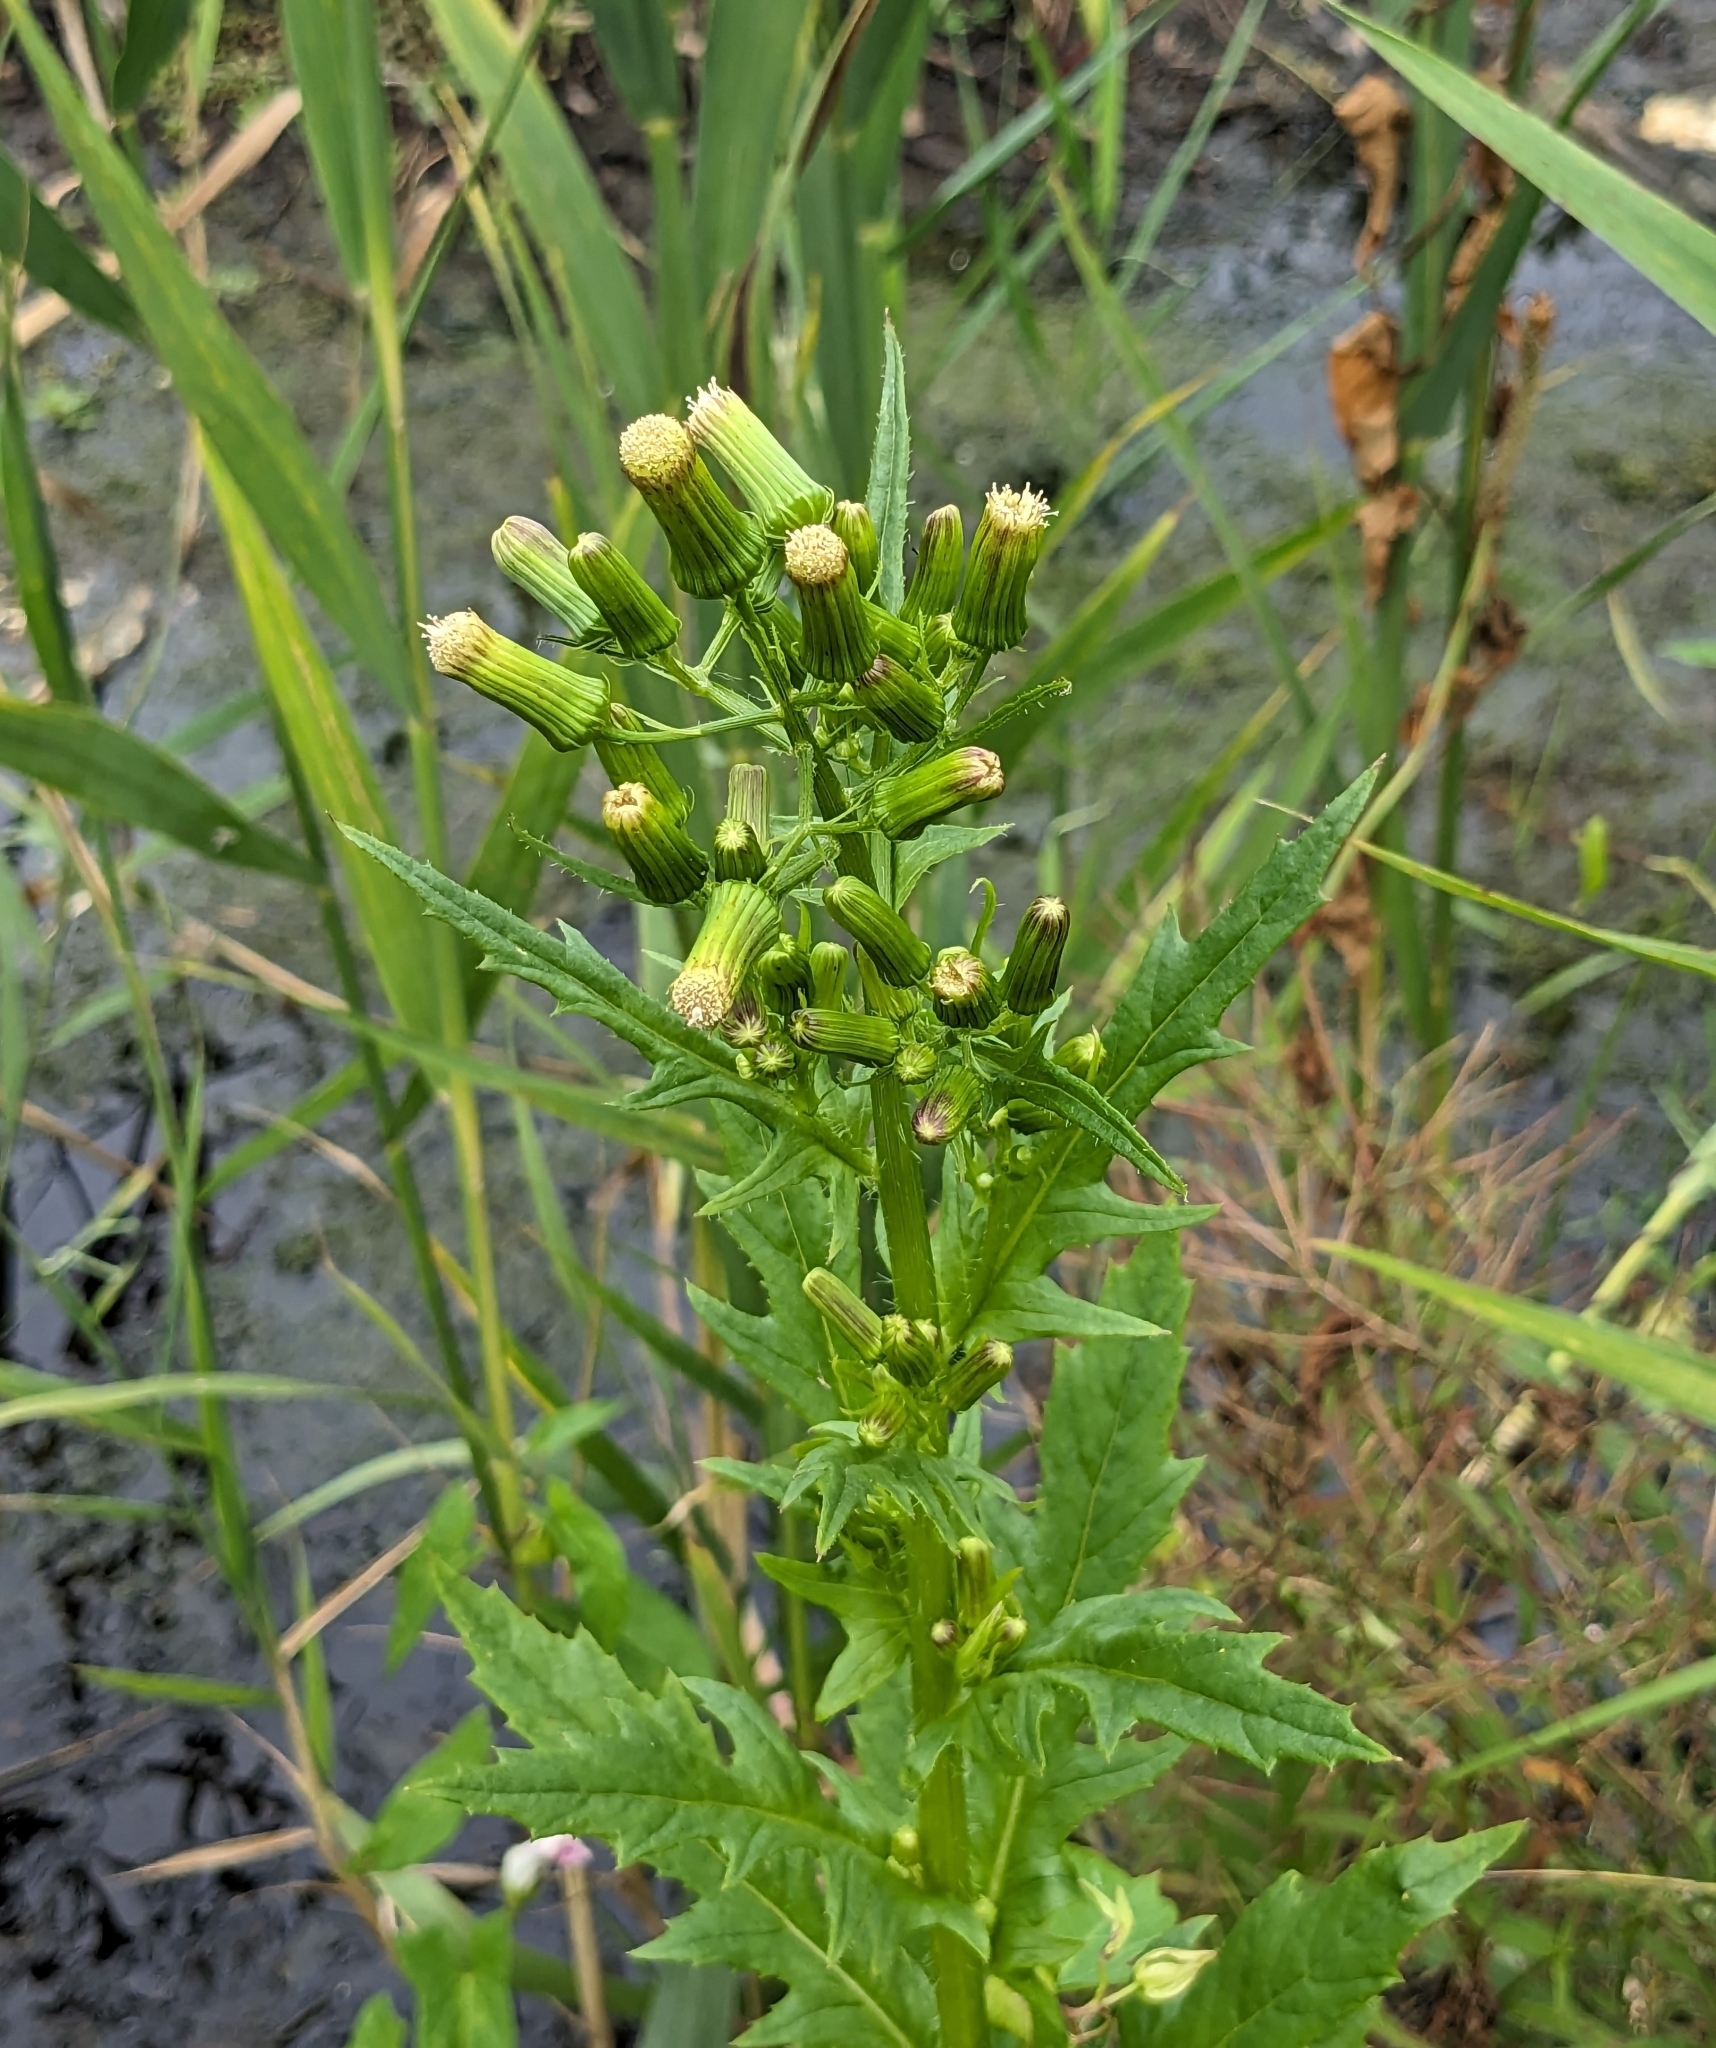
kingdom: Plantae
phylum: Tracheophyta
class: Magnoliopsida
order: Asterales
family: Asteraceae
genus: Erechtites
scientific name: Erechtites hieraciifolius
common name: American burnweed
